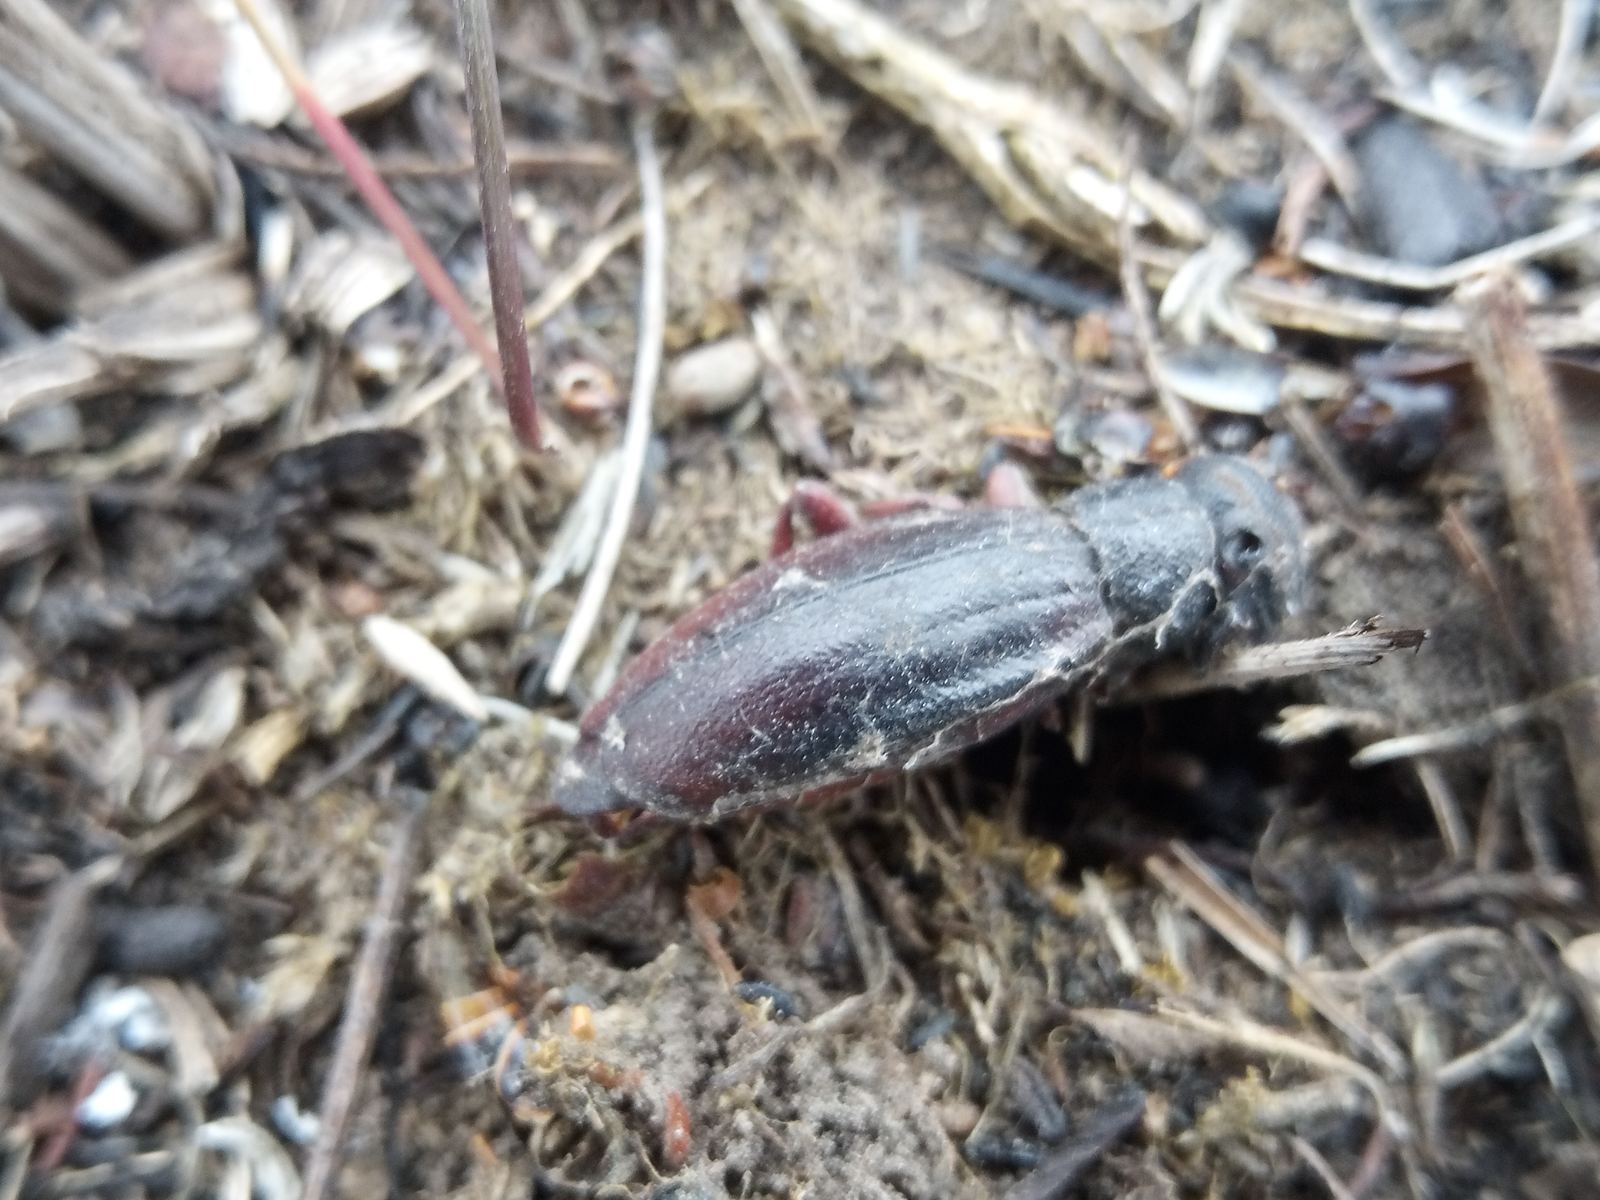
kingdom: Animalia
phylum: Arthropoda
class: Insecta
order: Coleoptera
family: Cerambycidae
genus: Dorcadion
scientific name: Dorcadion fulvum
